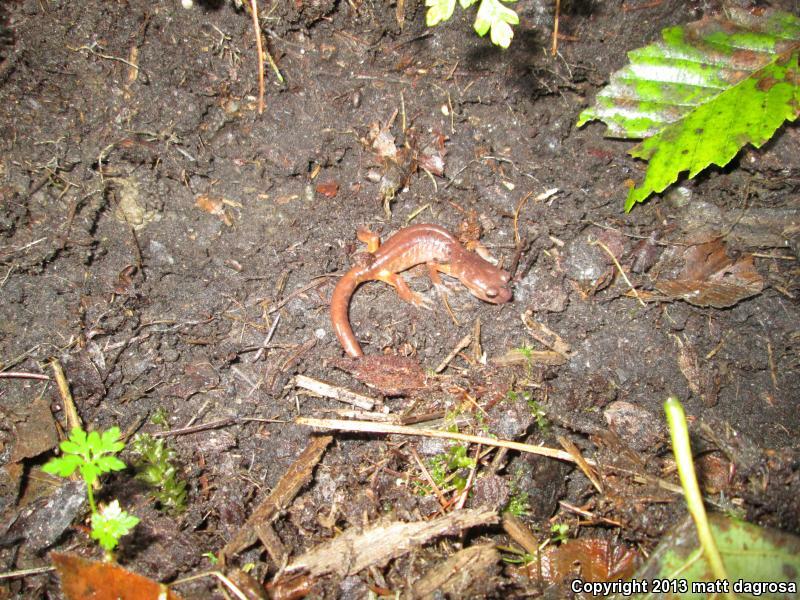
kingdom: Animalia
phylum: Chordata
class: Amphibia
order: Caudata
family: Plethodontidae
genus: Ensatina
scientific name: Ensatina eschscholtzii
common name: Ensatina
